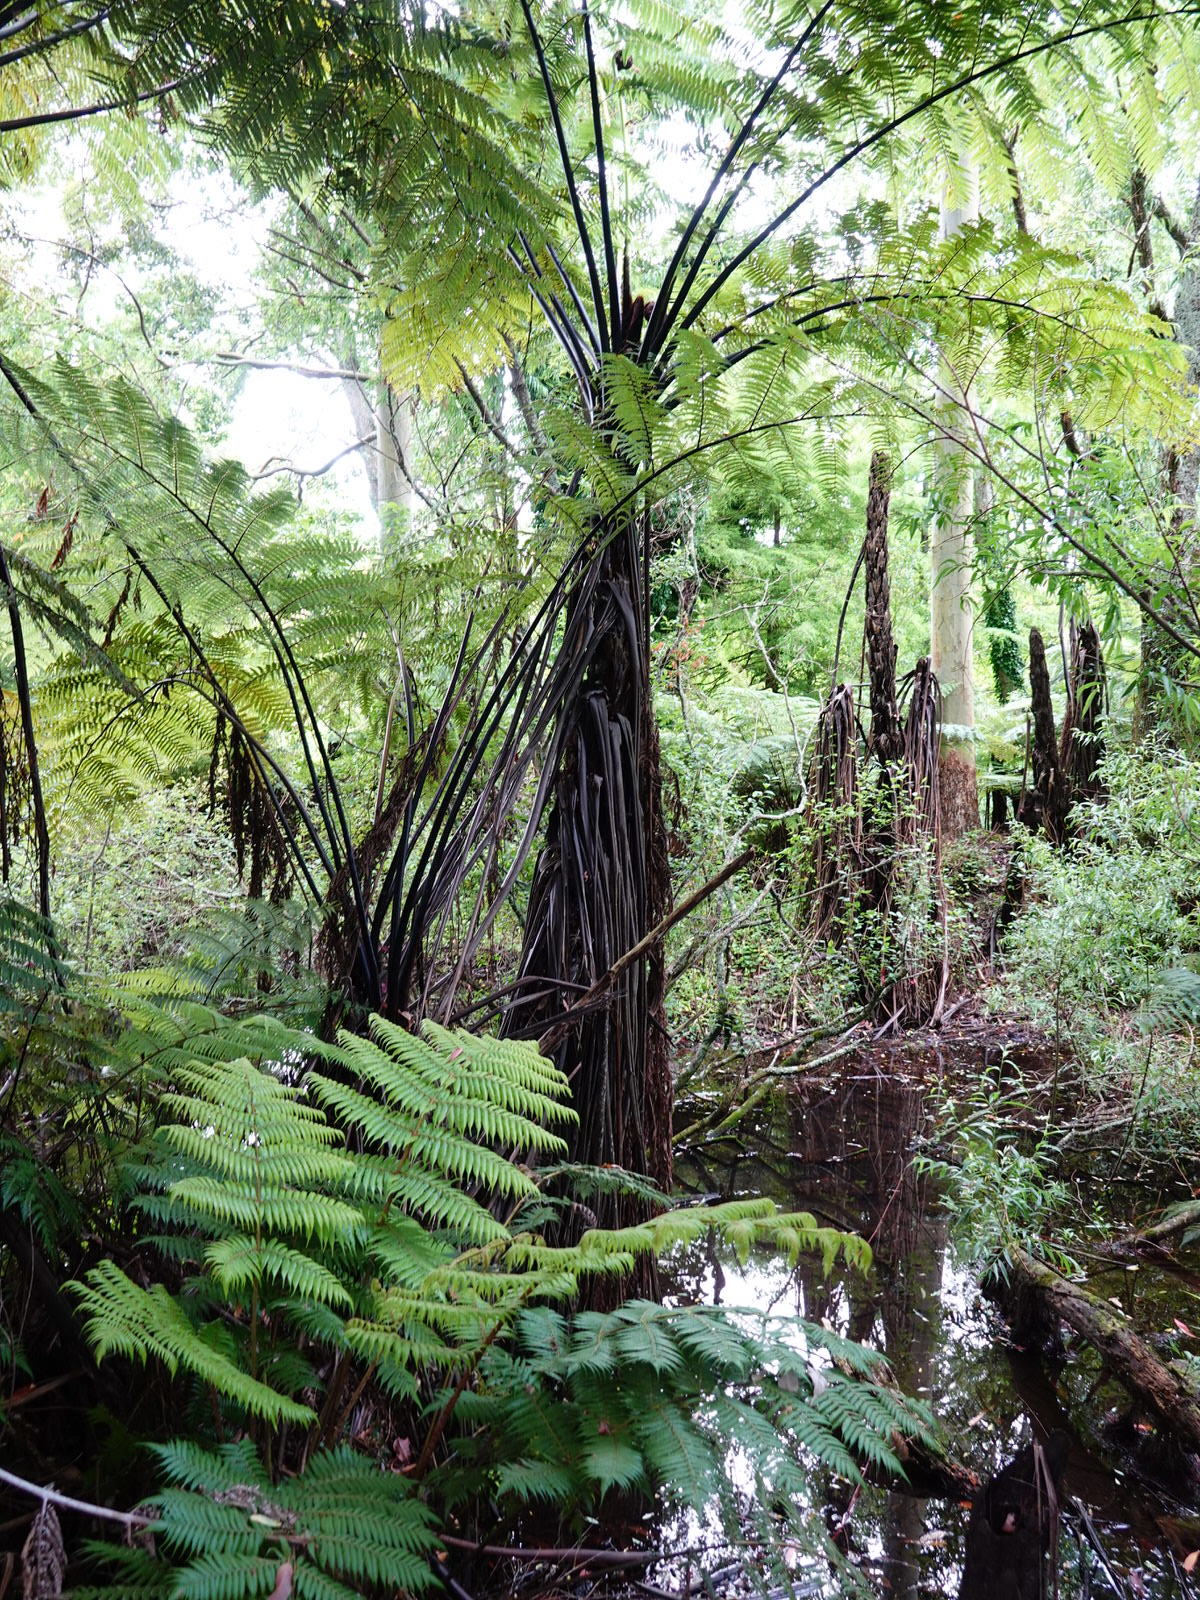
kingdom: Plantae
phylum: Tracheophyta
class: Polypodiopsida
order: Cyatheales
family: Cyatheaceae
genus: Sphaeropteris
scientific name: Sphaeropteris medullaris
